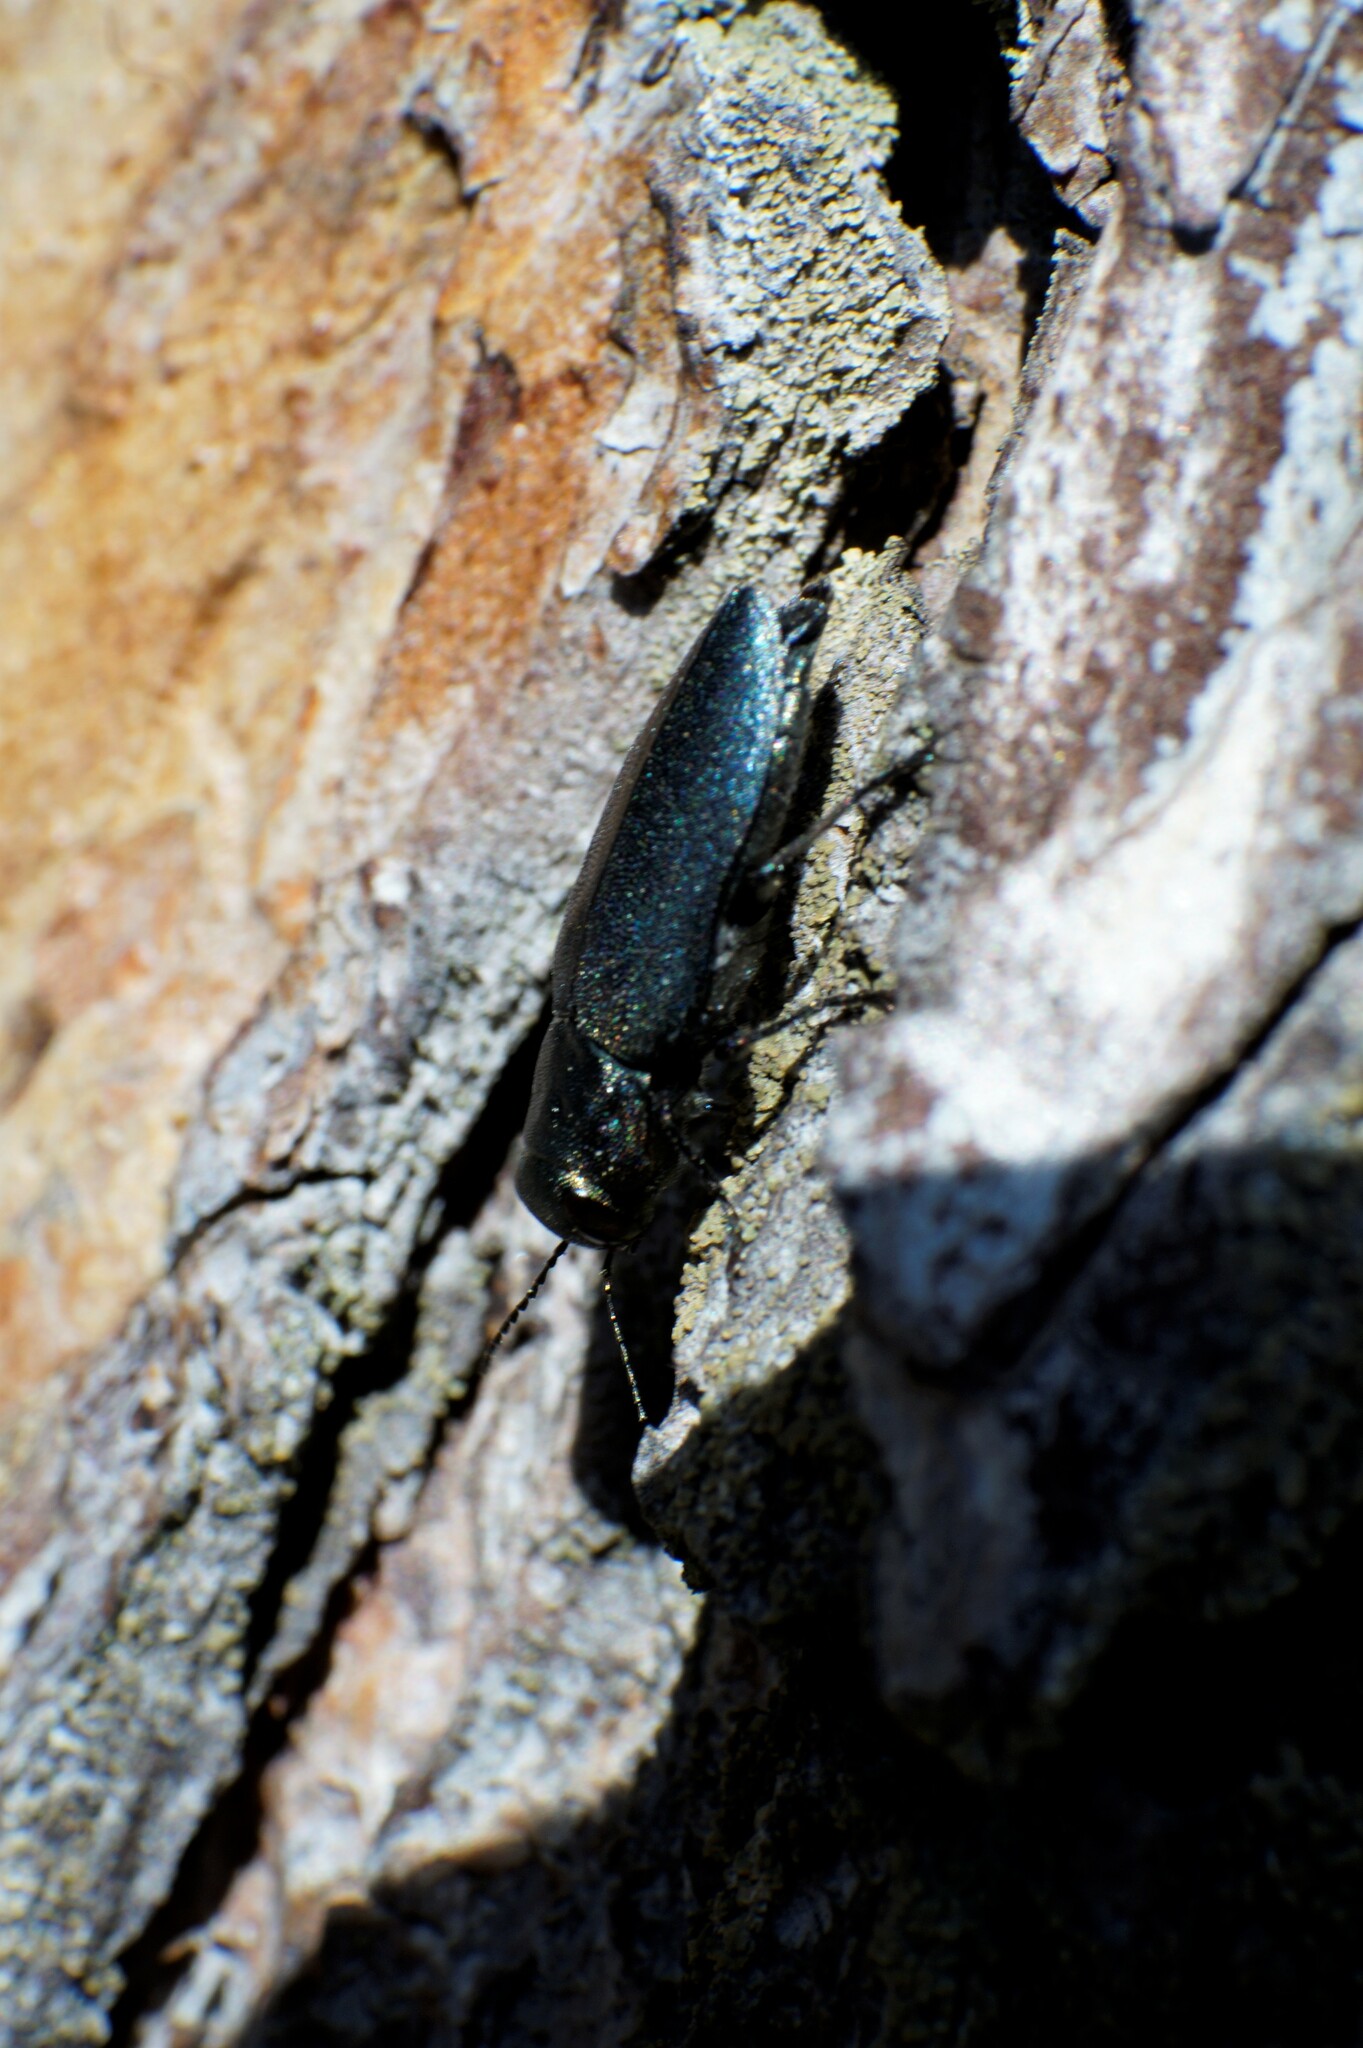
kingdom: Animalia
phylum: Arthropoda
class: Insecta
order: Coleoptera
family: Buprestidae
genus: Phaenops
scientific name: Phaenops cyanea
